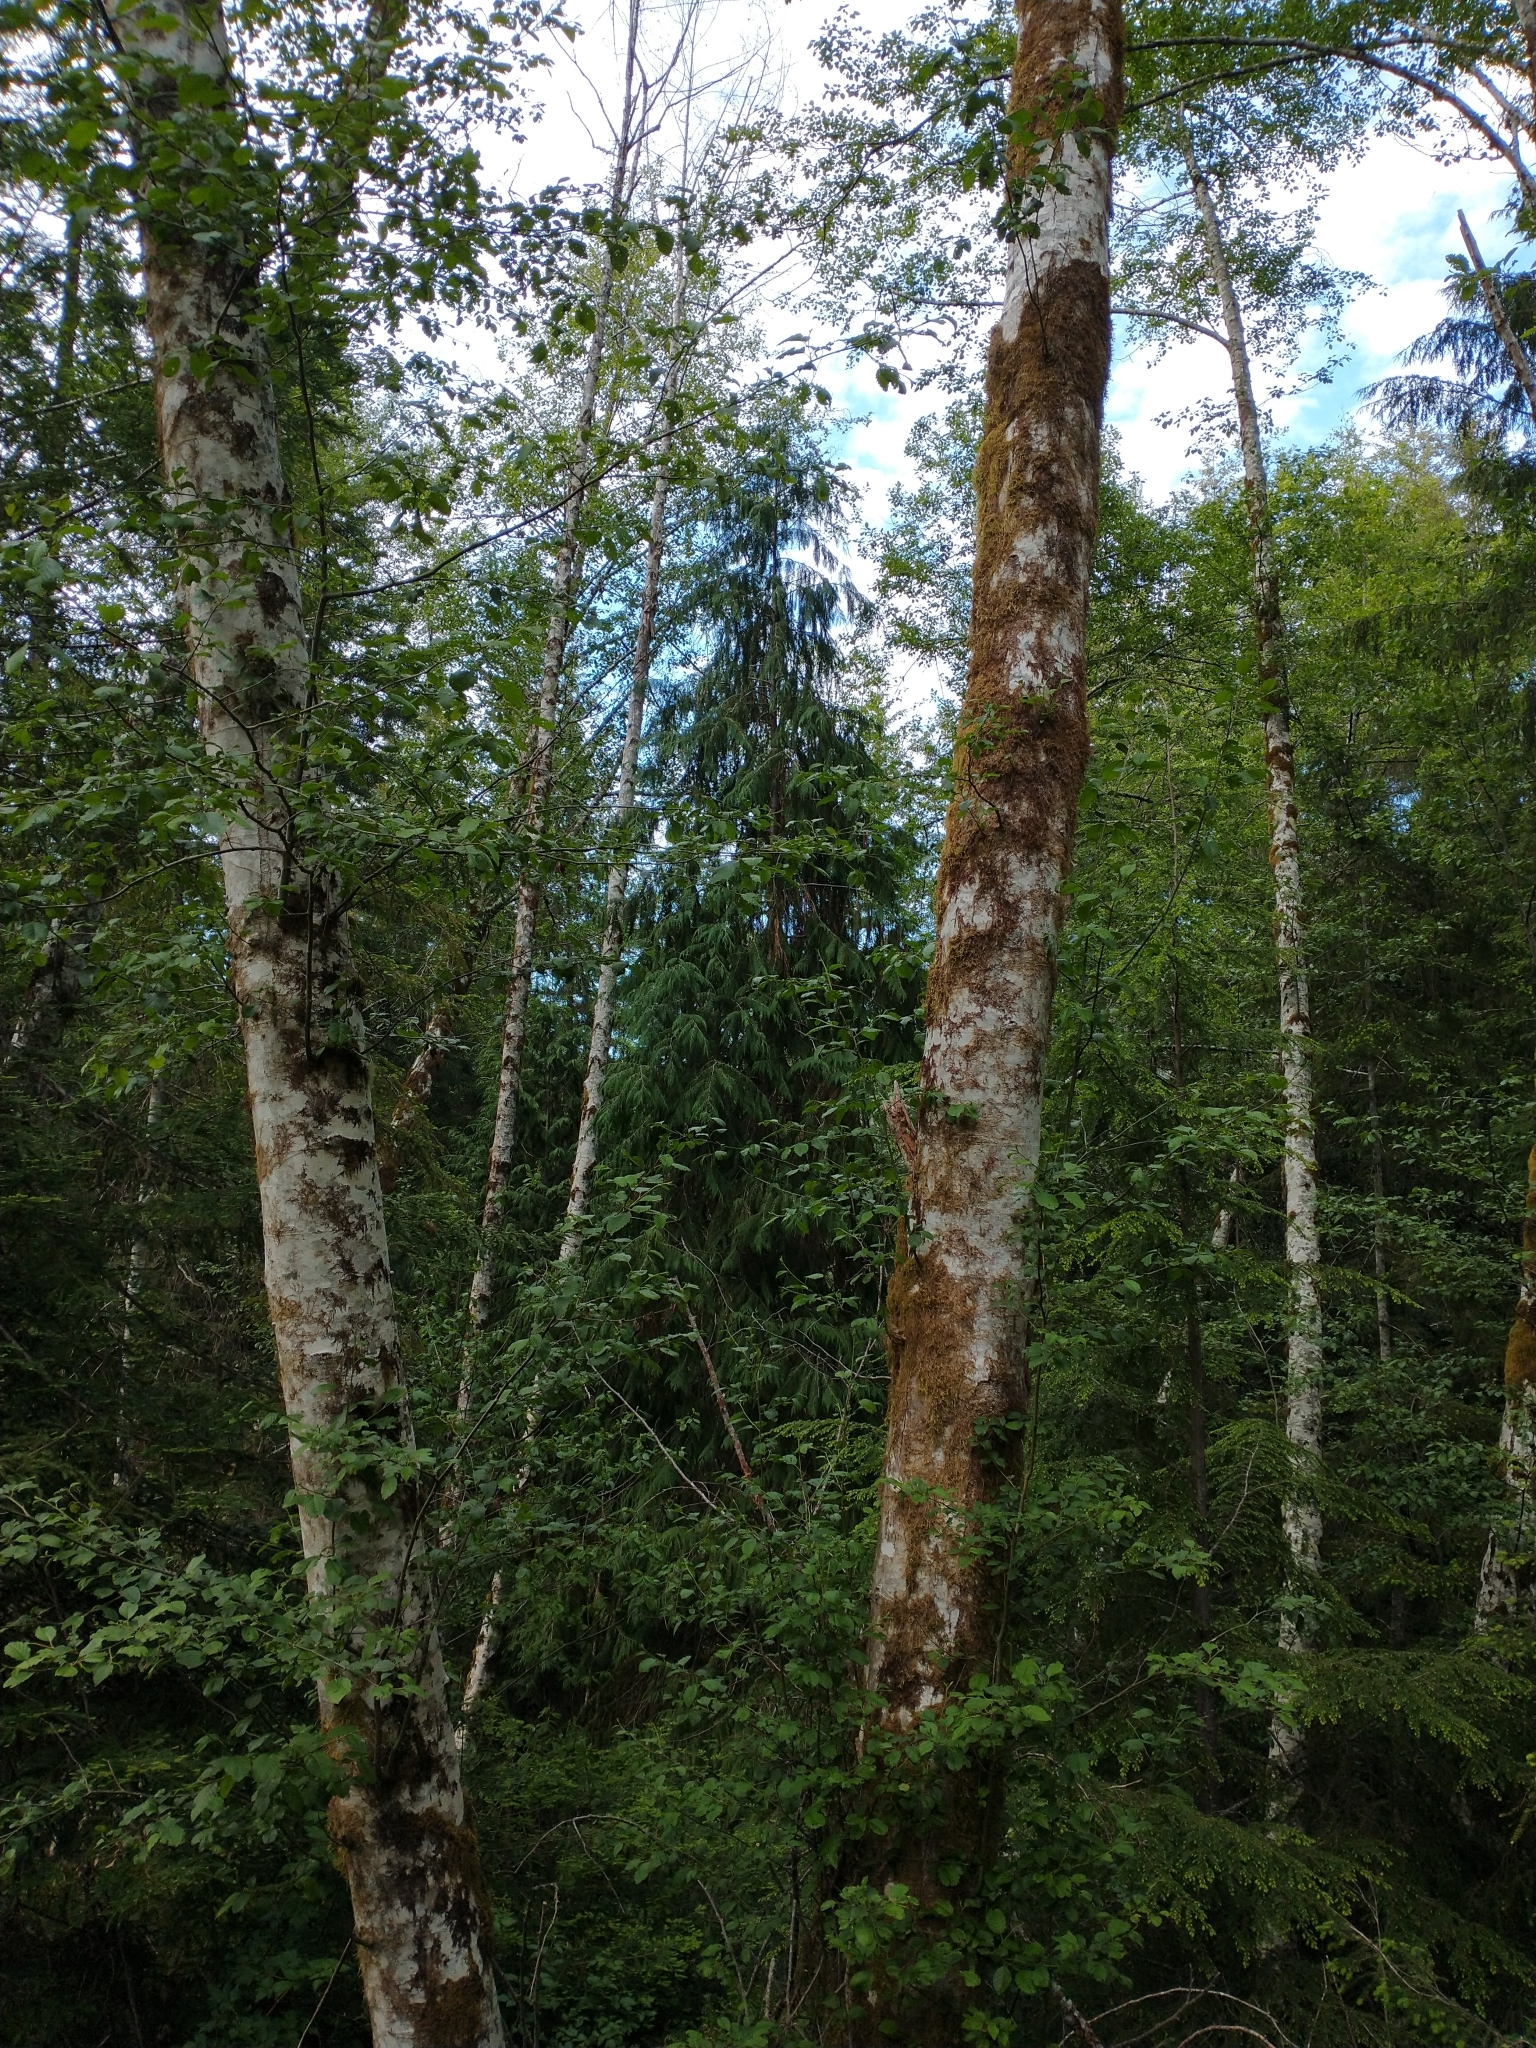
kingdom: Plantae
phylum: Tracheophyta
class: Pinopsida
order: Pinales
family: Cupressaceae
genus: Chamaecyparis
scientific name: Chamaecyparis lawsoniana
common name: Lawson's cypress
